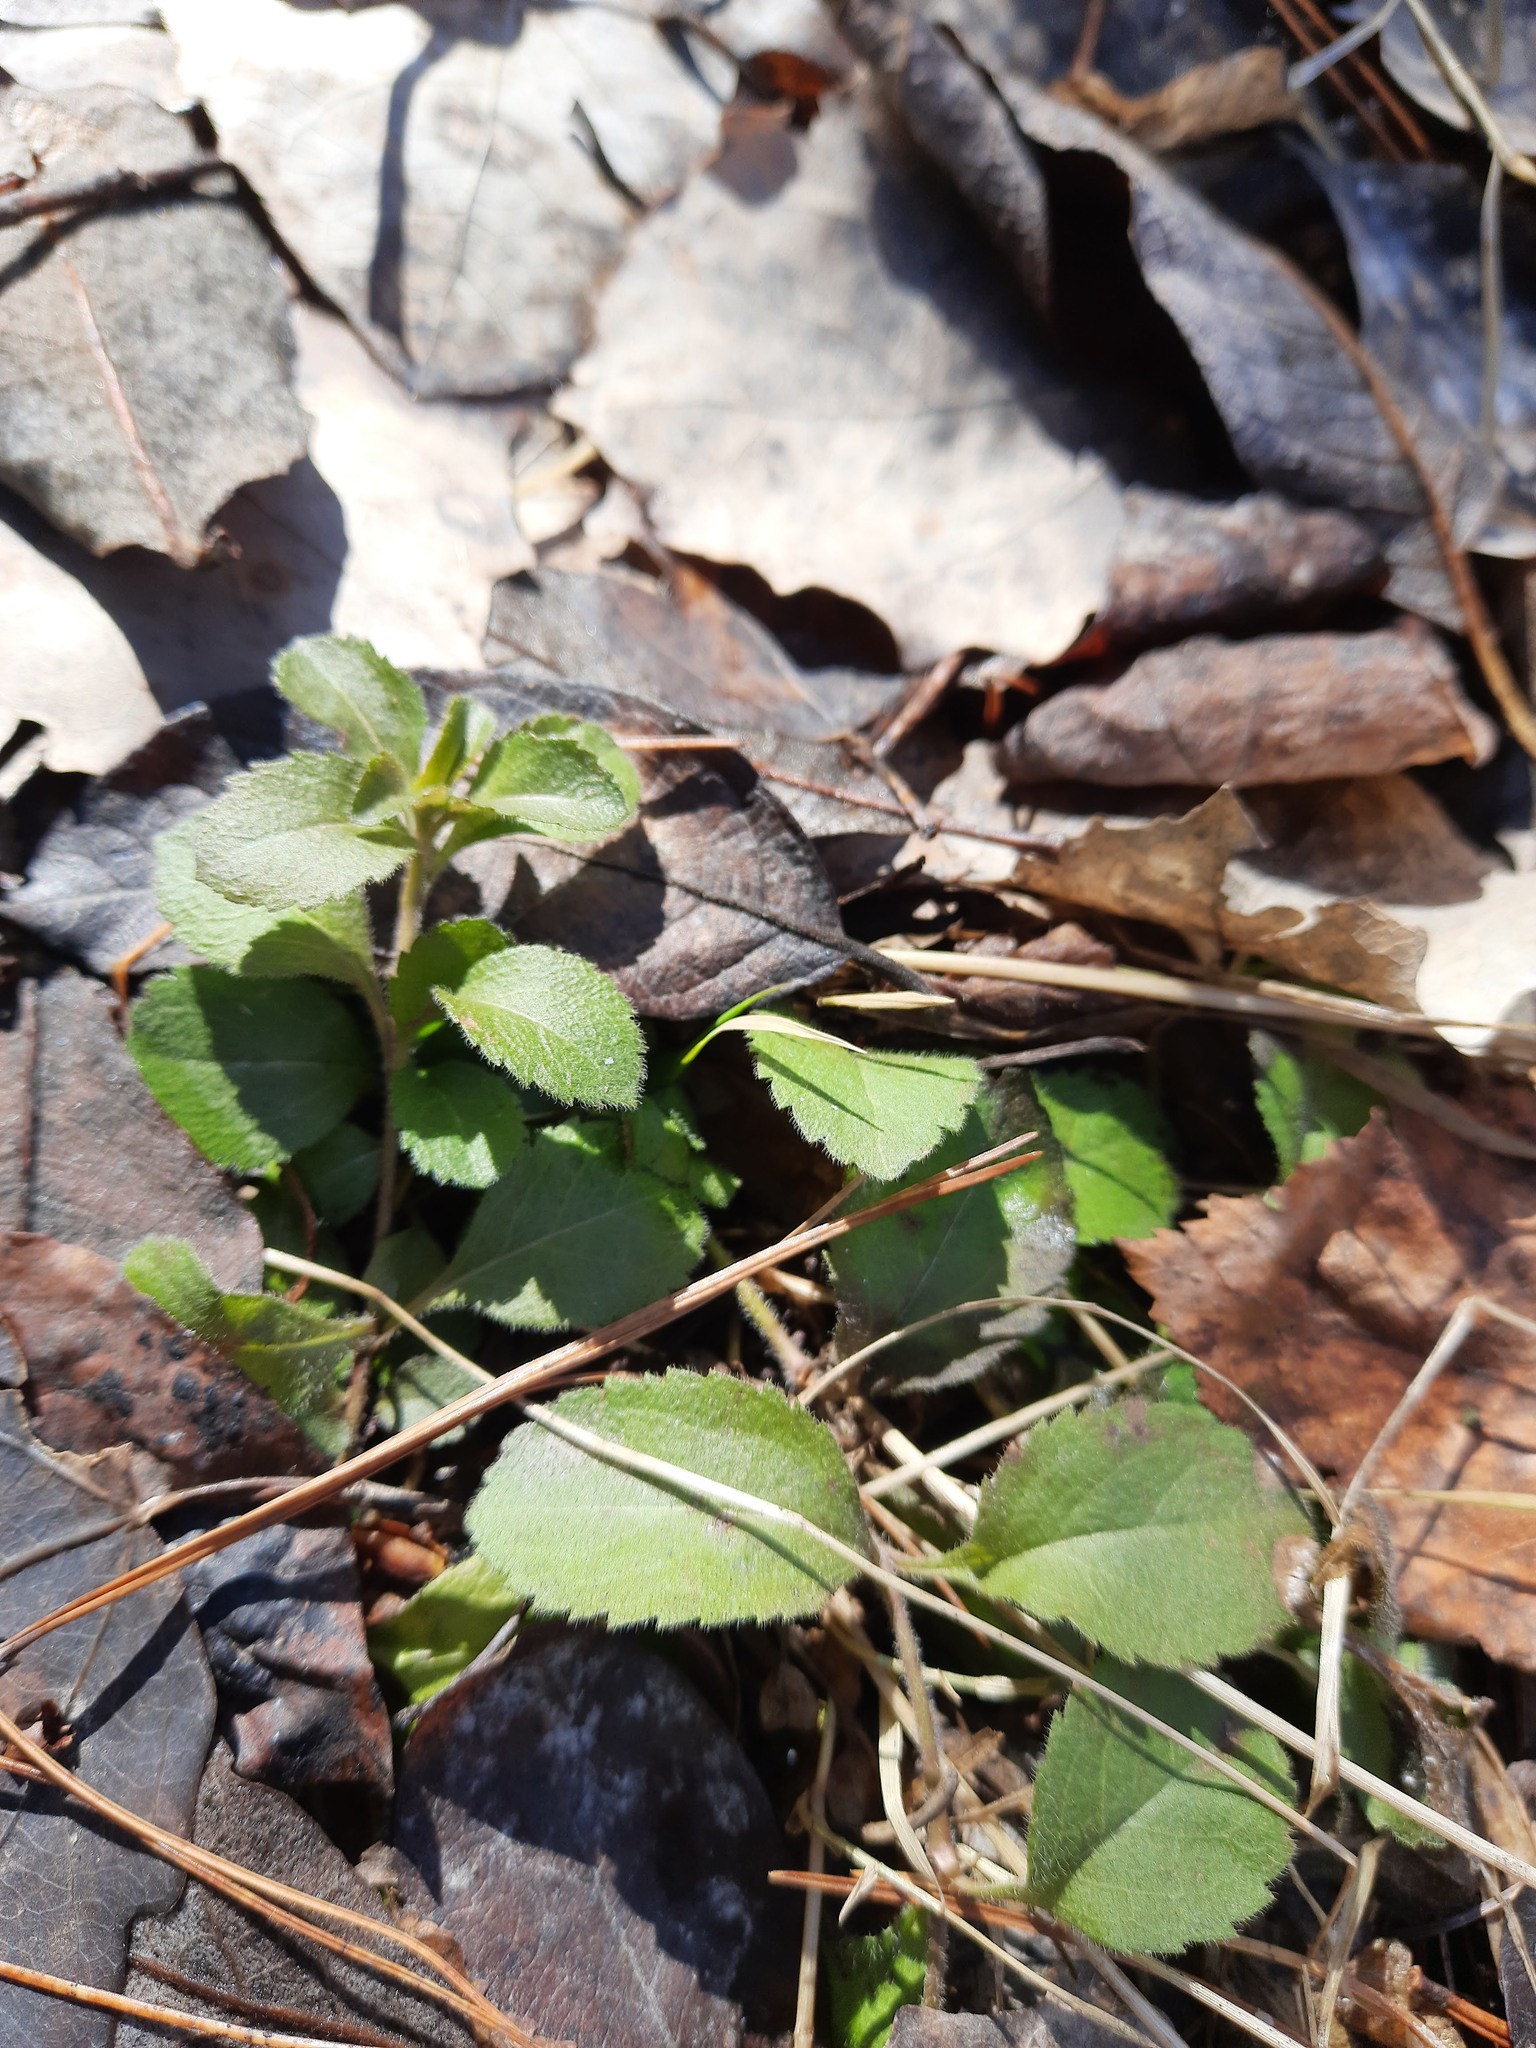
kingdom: Plantae
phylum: Tracheophyta
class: Magnoliopsida
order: Lamiales
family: Plantaginaceae
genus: Veronica
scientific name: Veronica officinalis
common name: Common speedwell
